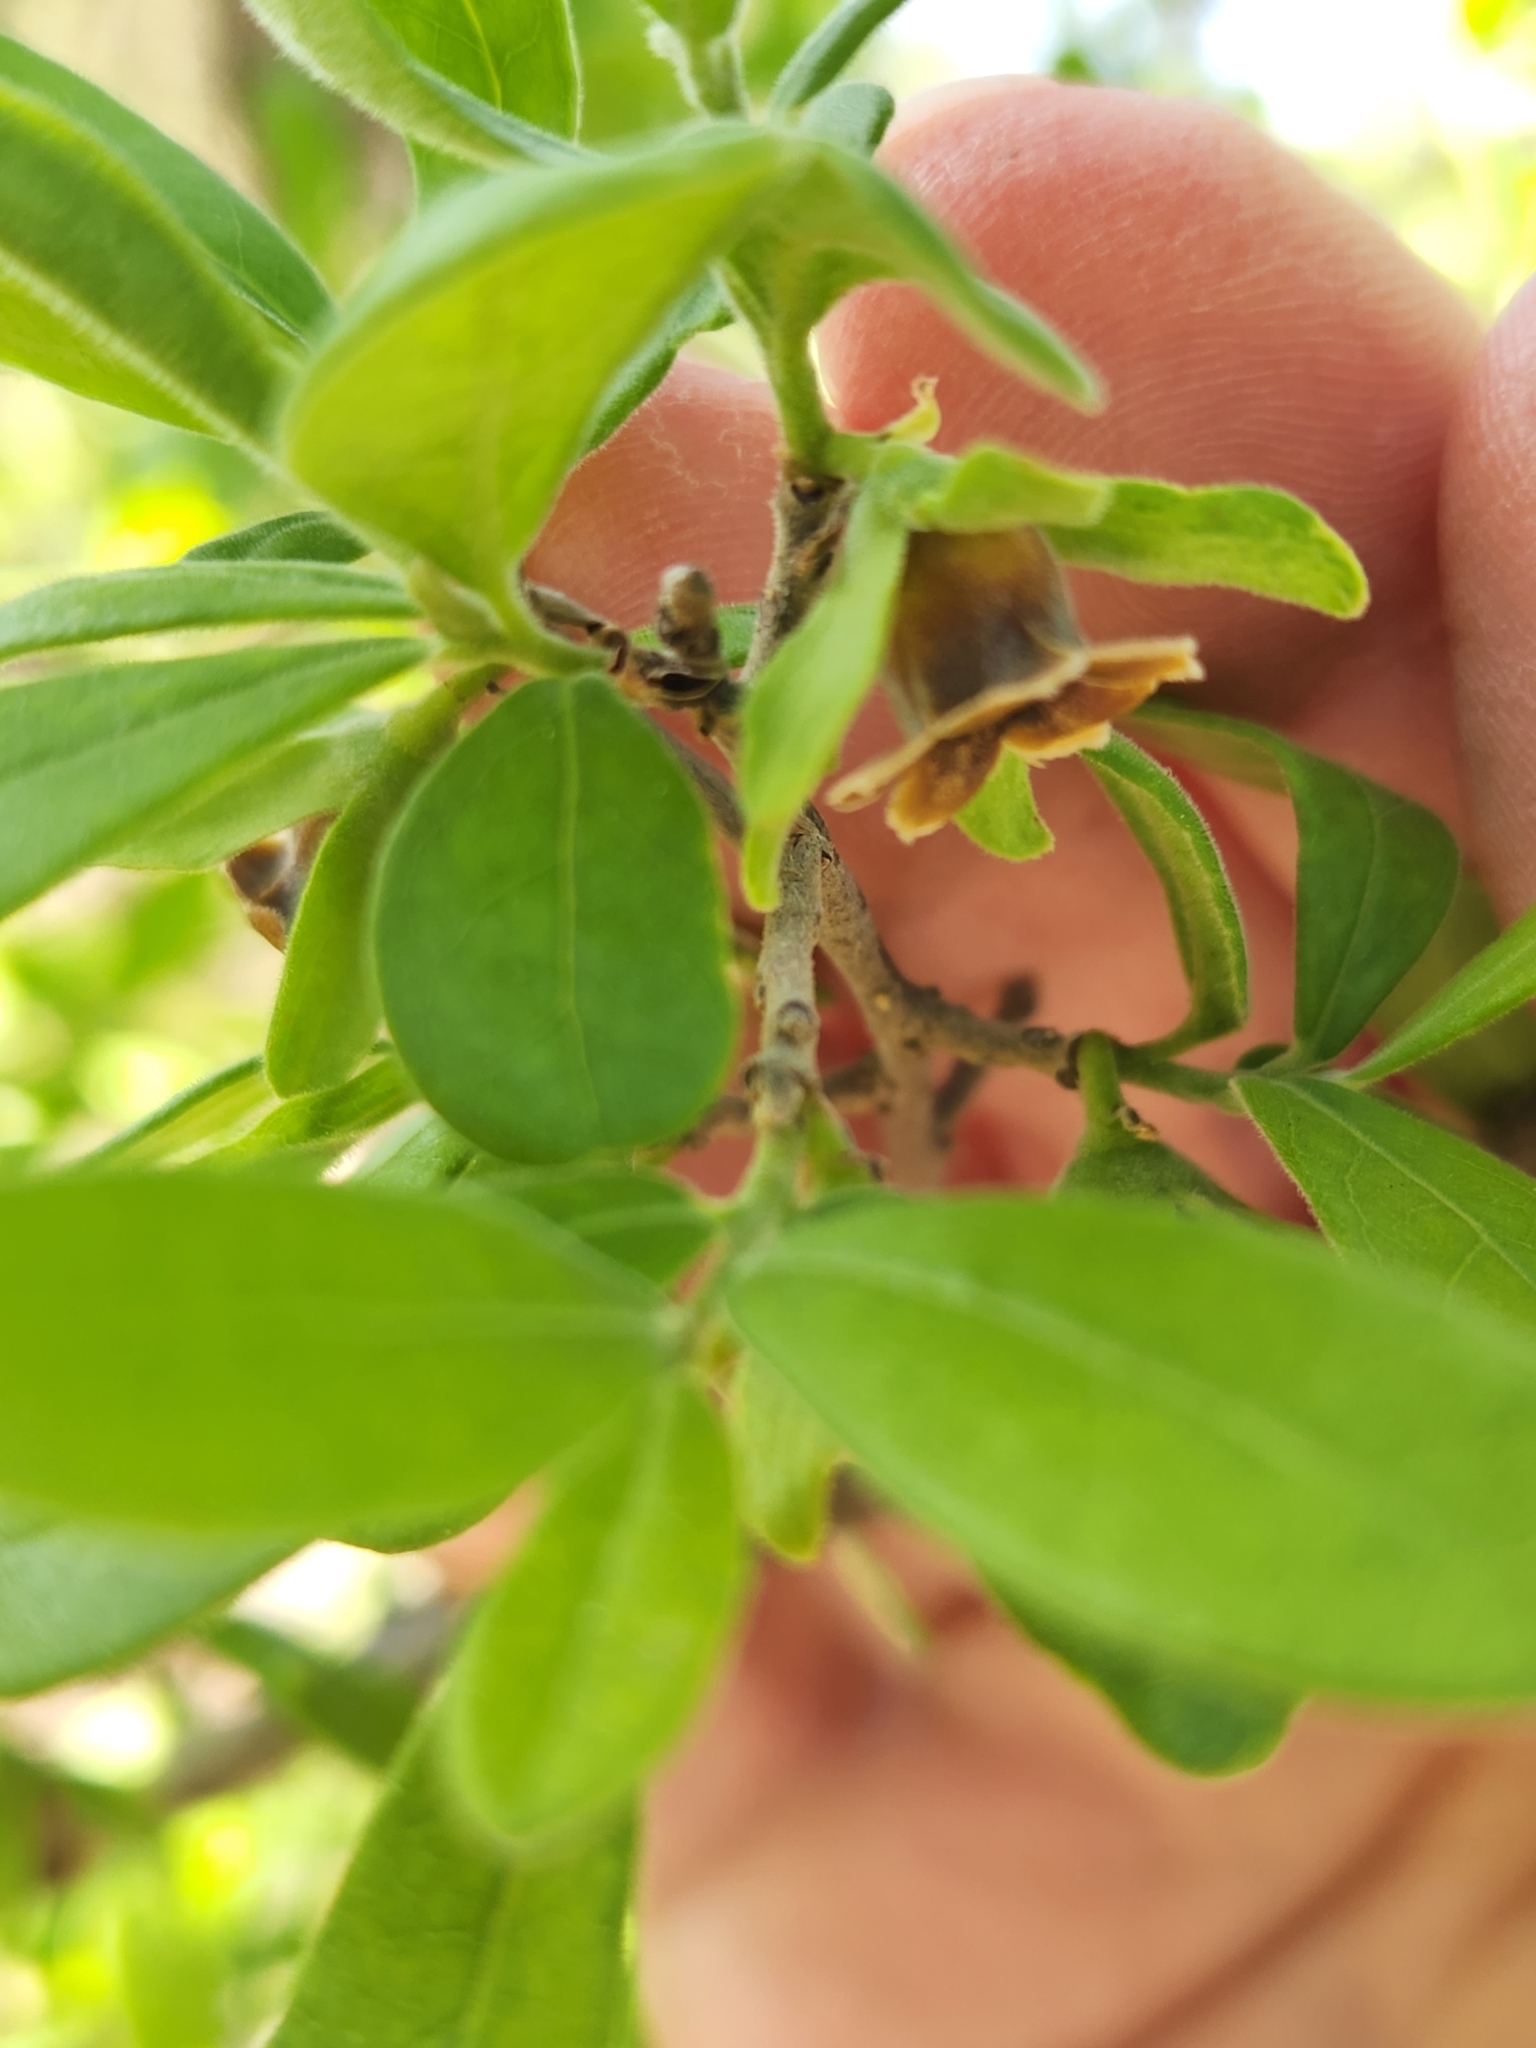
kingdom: Plantae
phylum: Tracheophyta
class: Magnoliopsida
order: Ericales
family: Ebenaceae
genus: Diospyros
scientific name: Diospyros texana
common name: Texas persimmon
